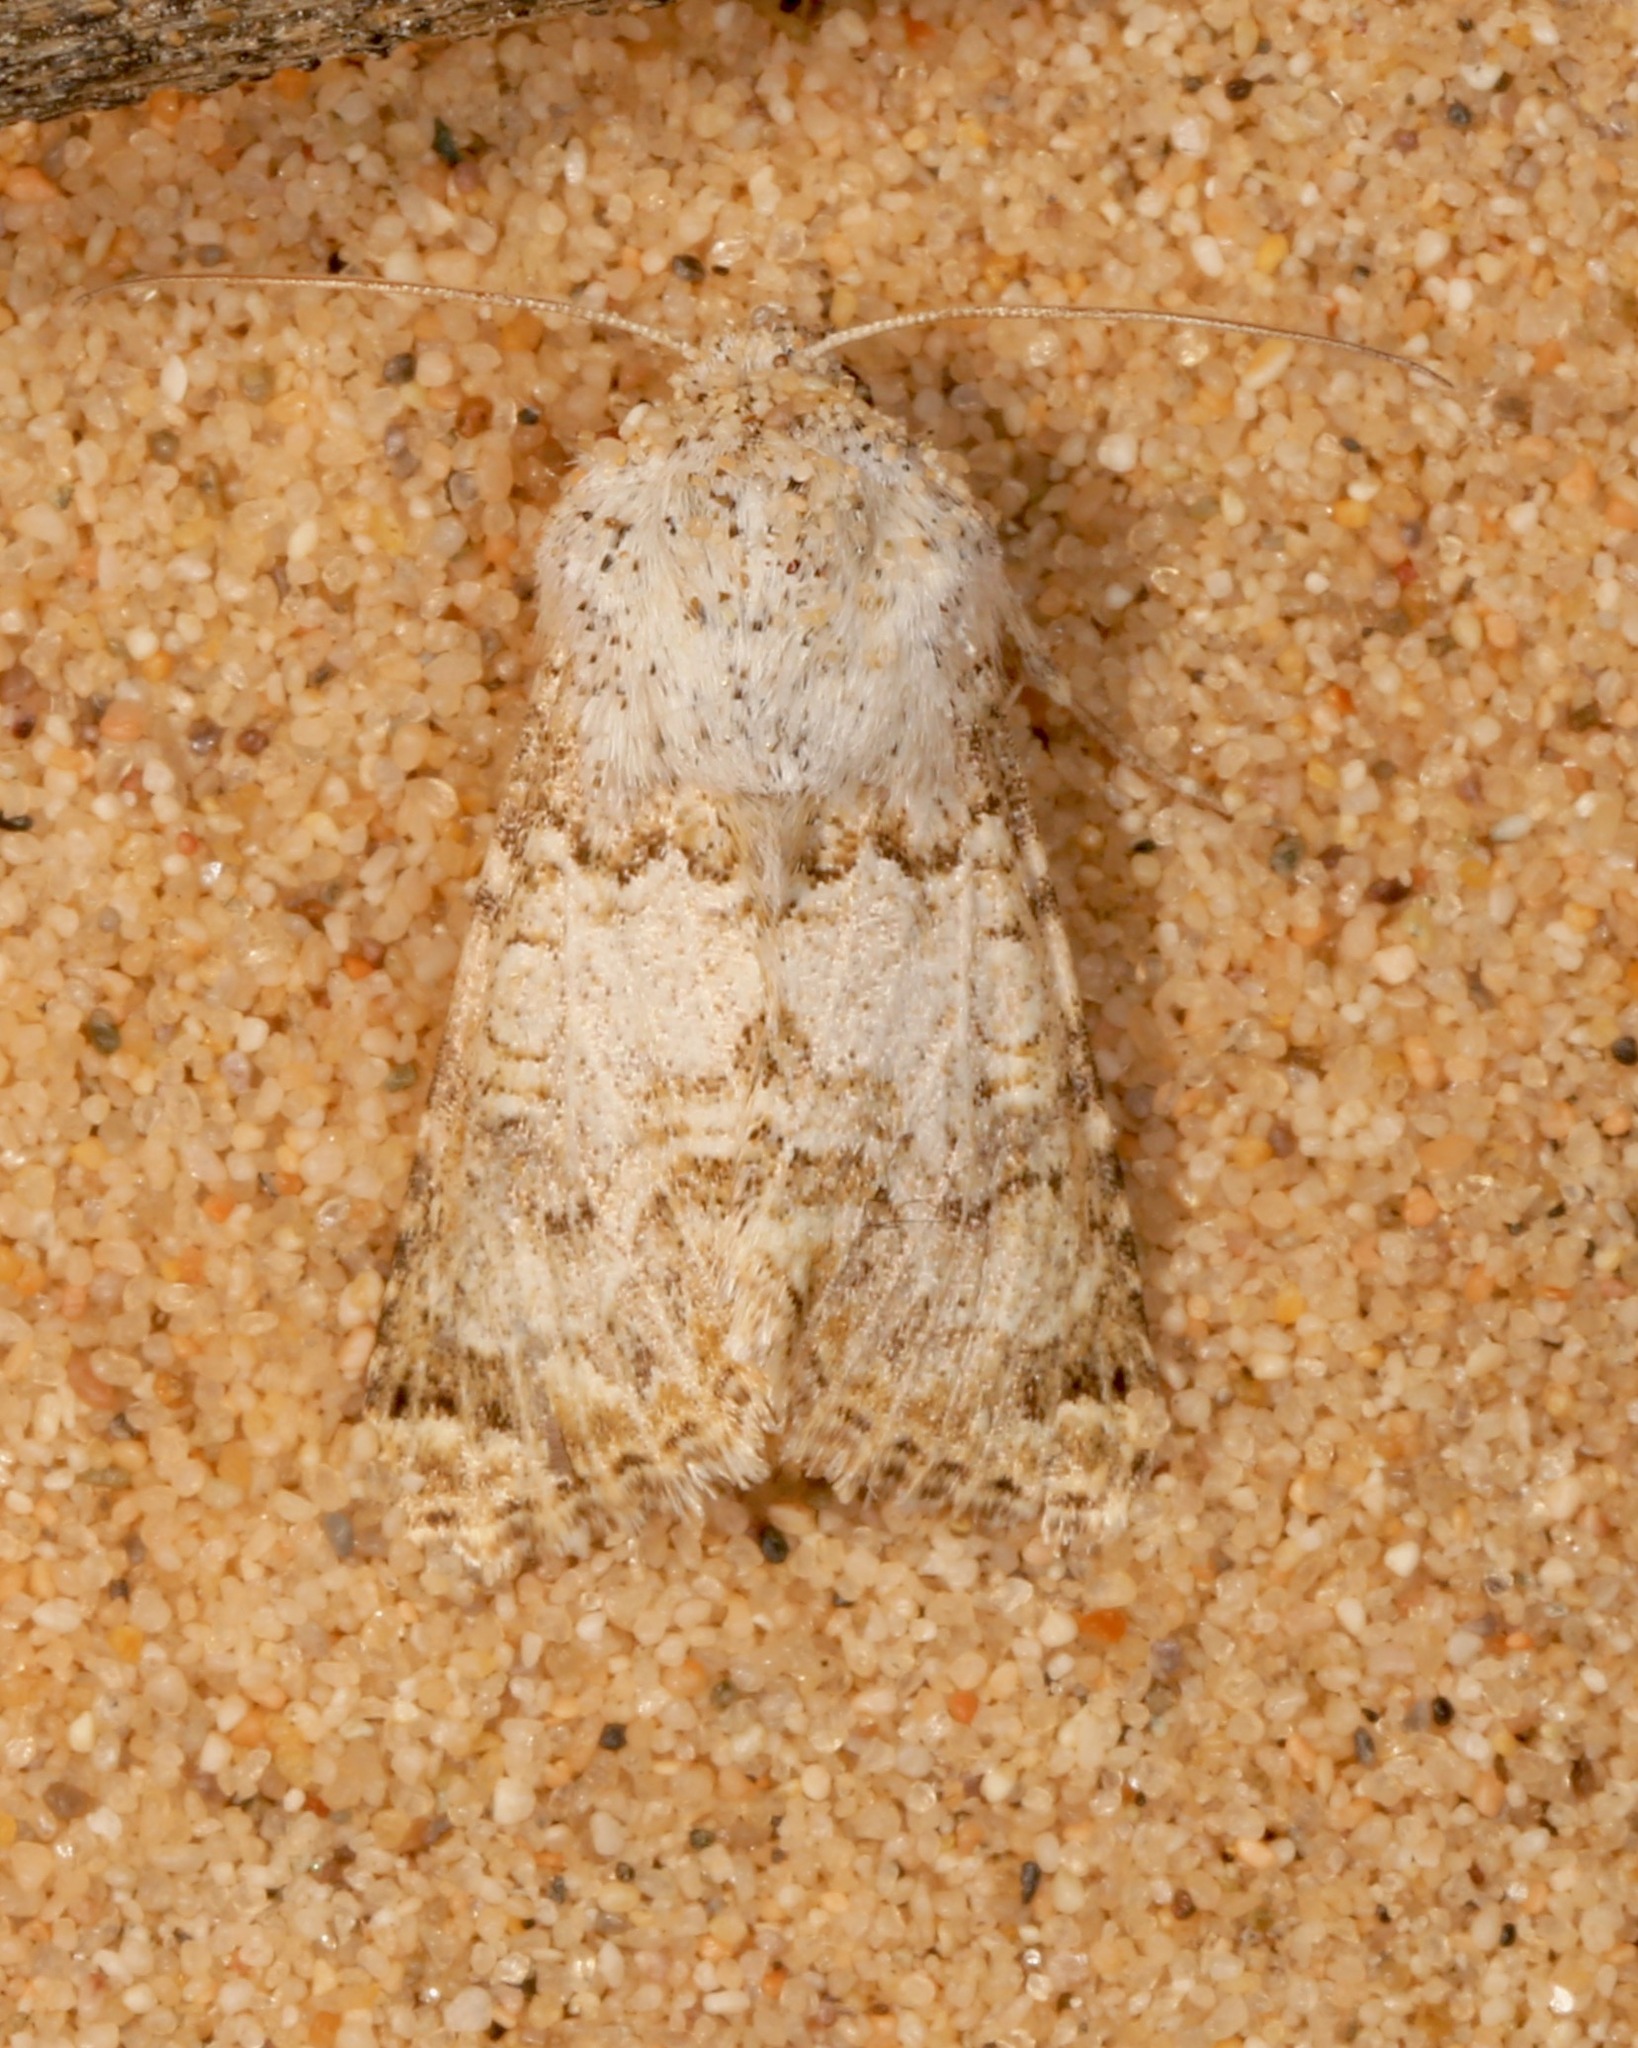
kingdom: Animalia
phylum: Arthropoda
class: Insecta
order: Lepidoptera
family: Noctuidae
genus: Schinia
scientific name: Schinia deserticola
